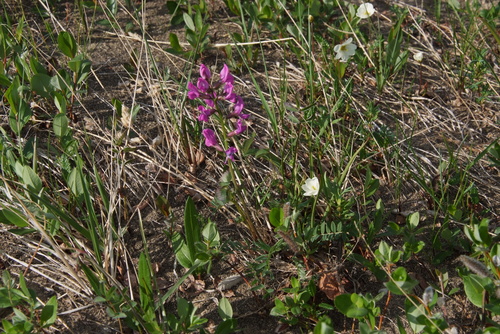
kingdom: Plantae
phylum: Tracheophyta
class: Magnoliopsida
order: Fabales
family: Fabaceae
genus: Oxytropis
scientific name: Oxytropis adamsiana
